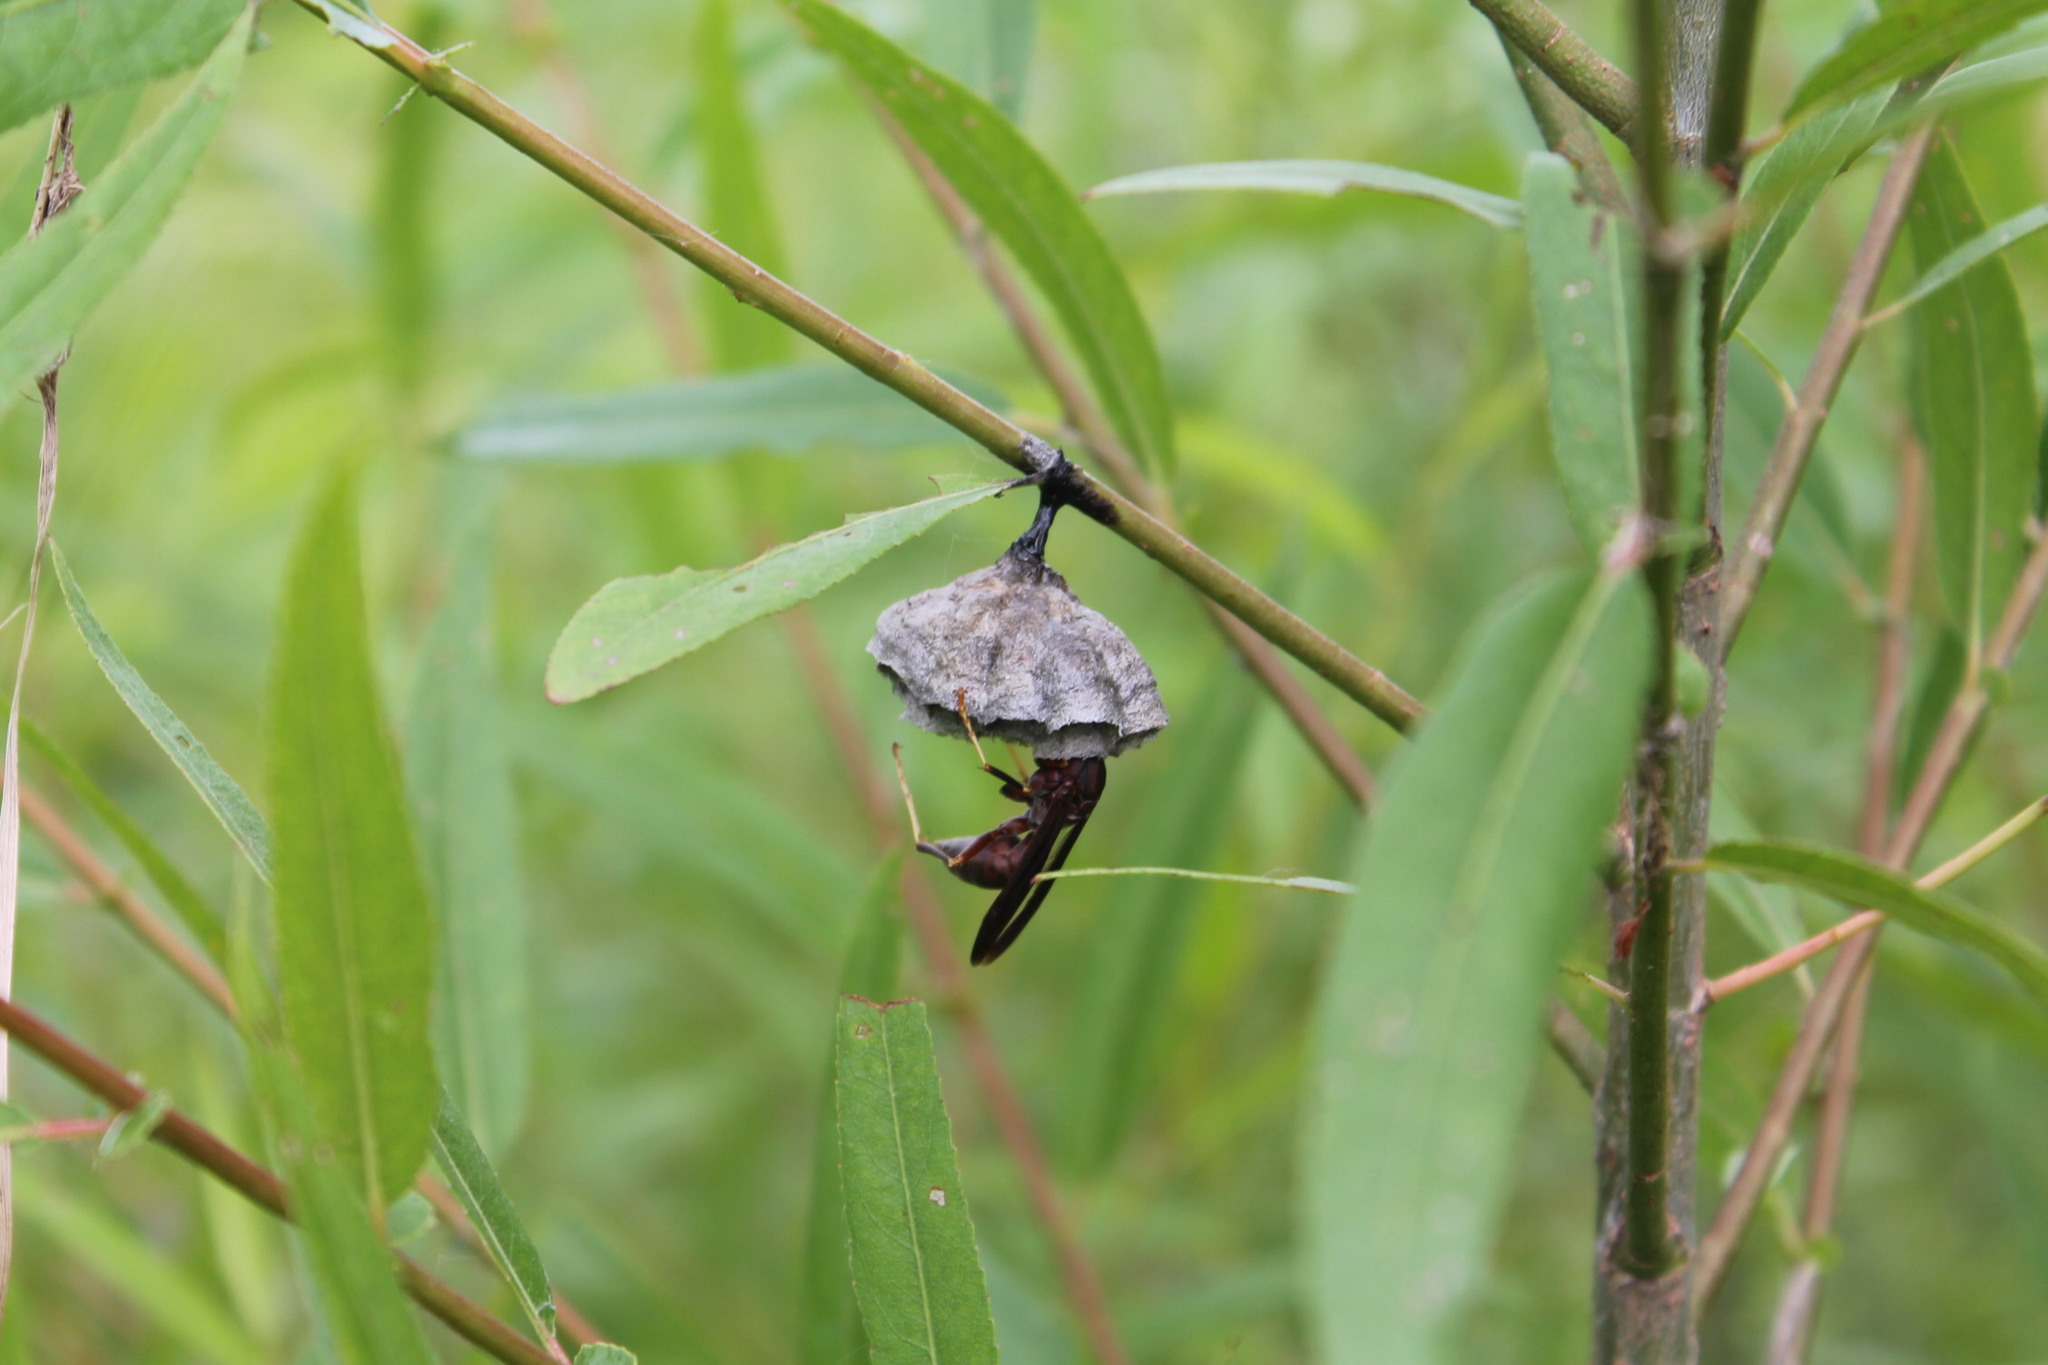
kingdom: Animalia
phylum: Arthropoda
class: Insecta
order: Hymenoptera
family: Eumenidae
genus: Polistes
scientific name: Polistes metricus
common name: Metric paper wasp
